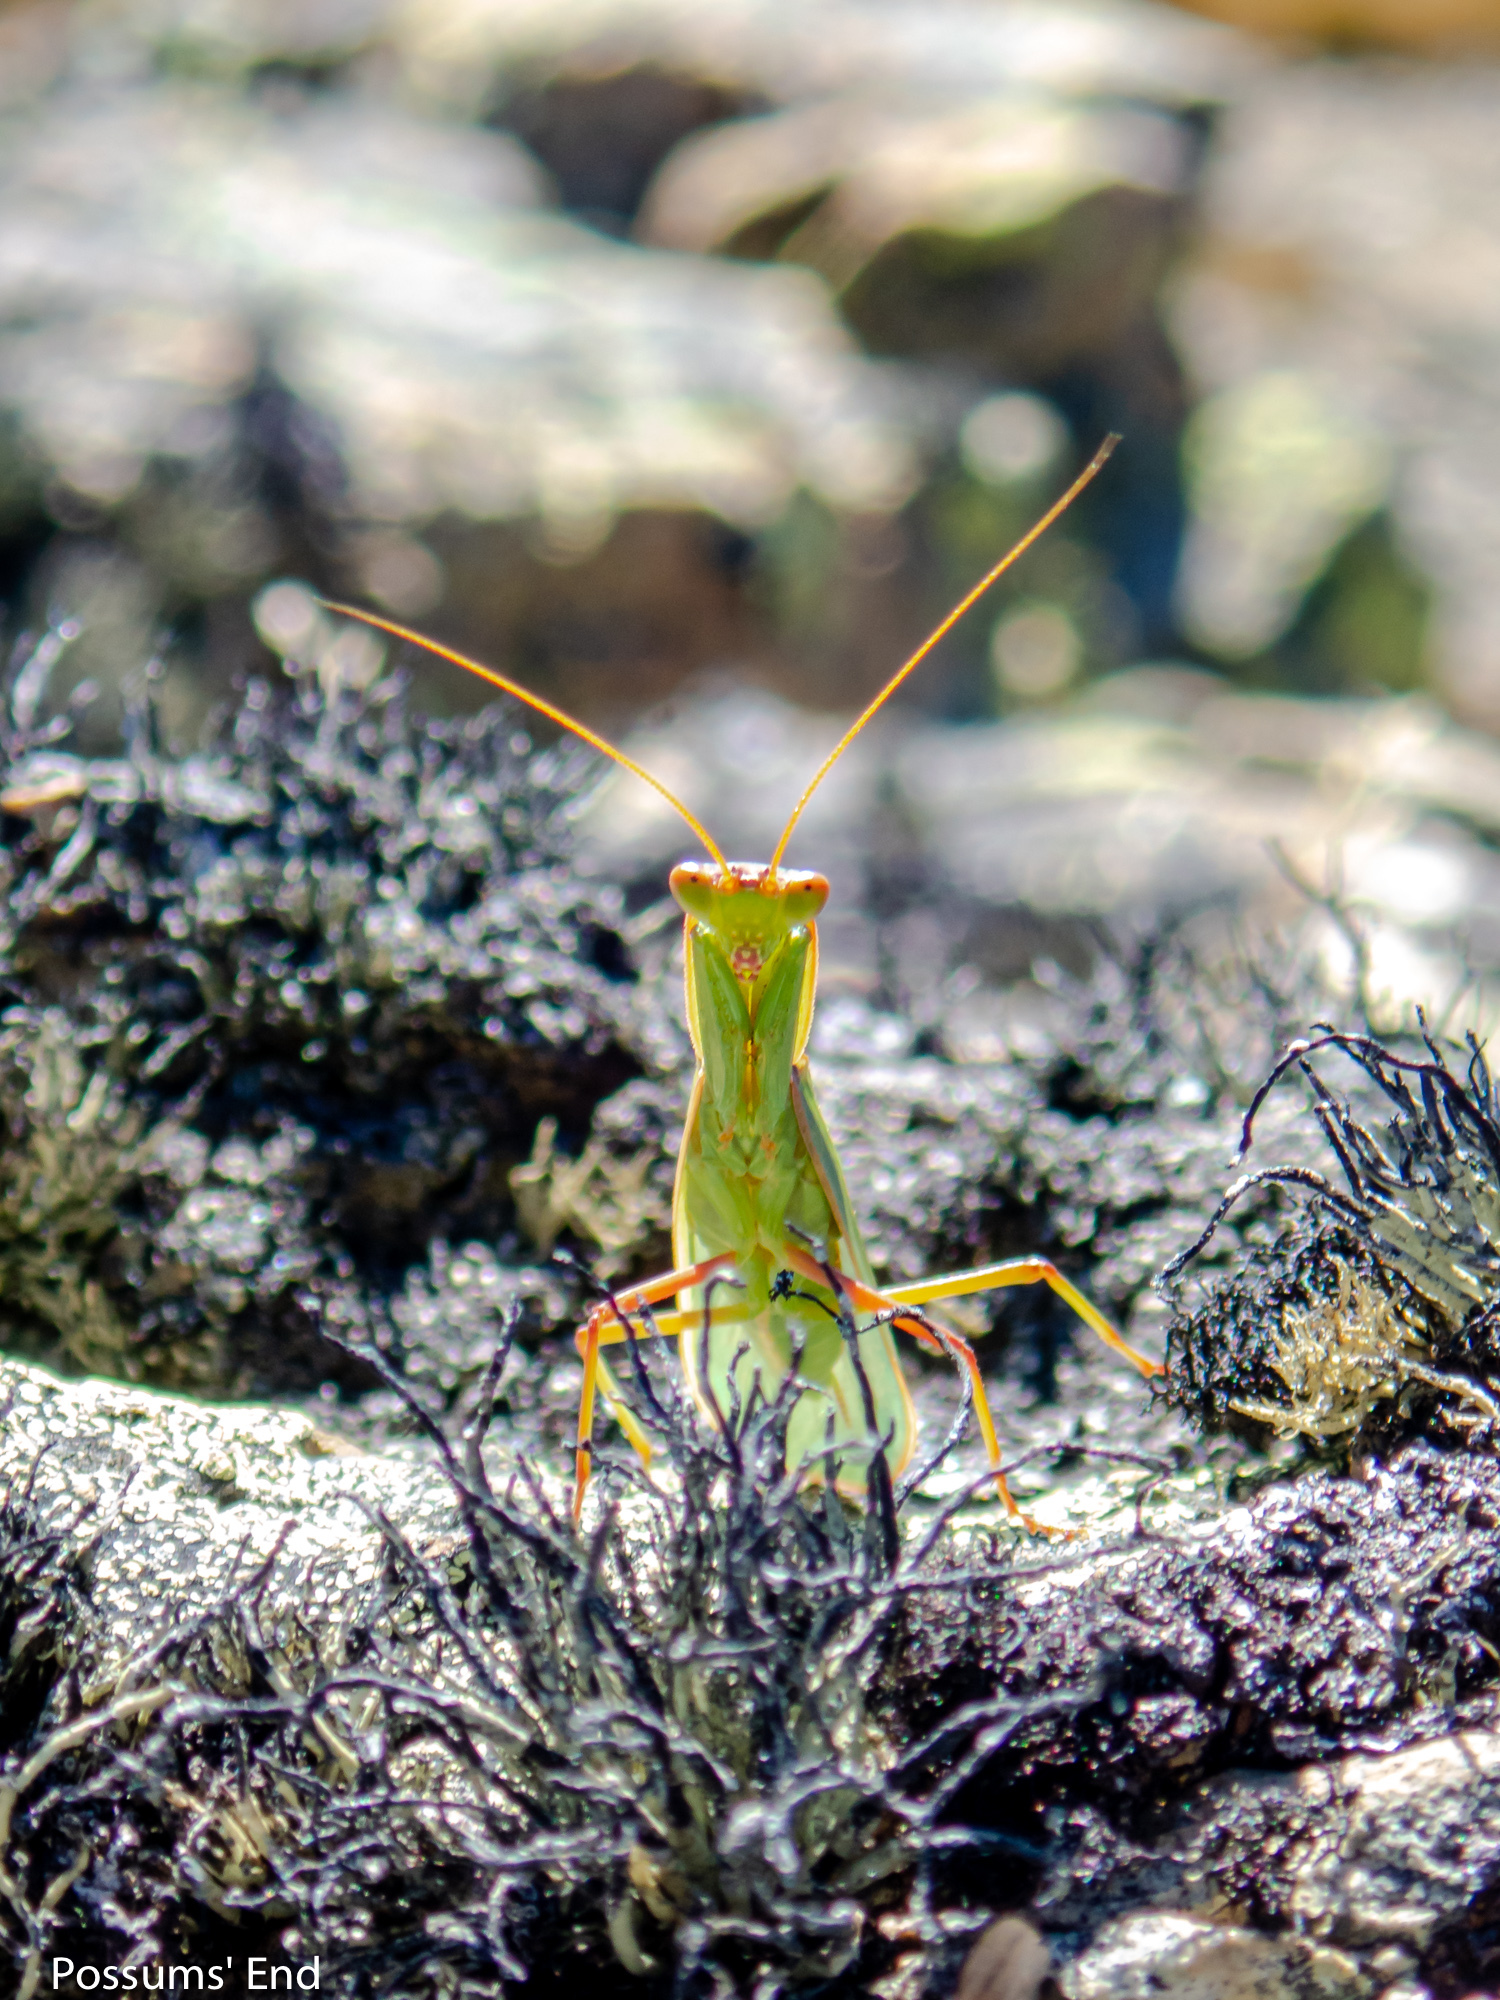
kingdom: Animalia
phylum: Arthropoda
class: Insecta
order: Mantodea
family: Mantidae
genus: Orthodera
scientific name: Orthodera novaezealandiae
